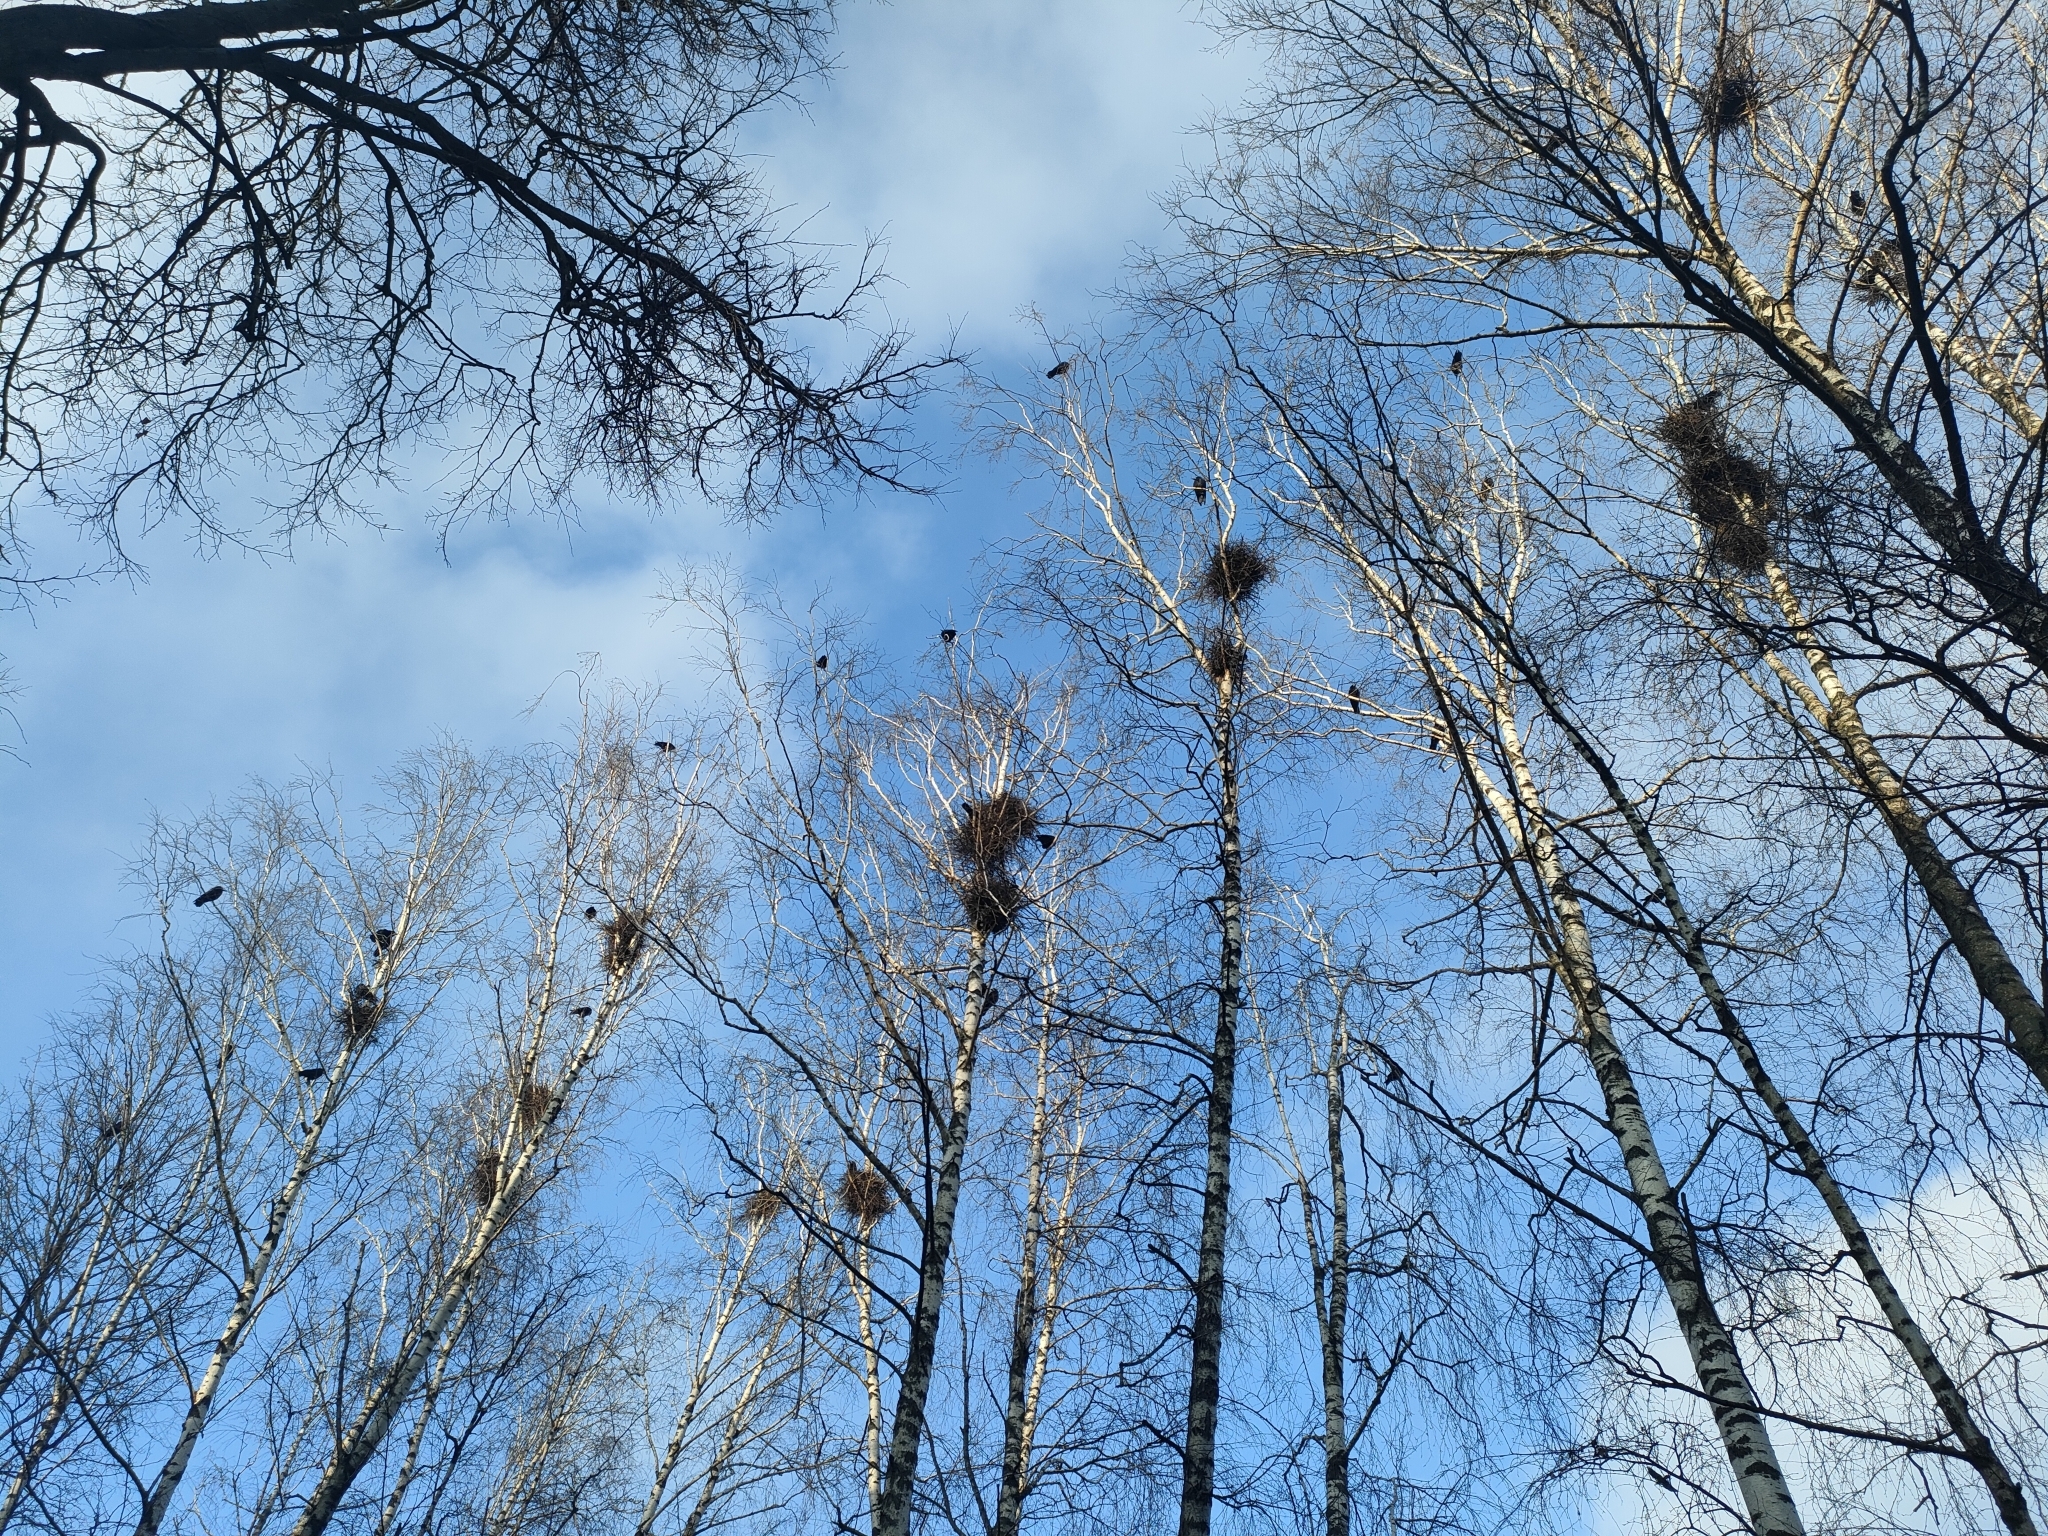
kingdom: Animalia
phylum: Chordata
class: Aves
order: Passeriformes
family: Corvidae
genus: Corvus
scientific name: Corvus frugilegus
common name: Rook
